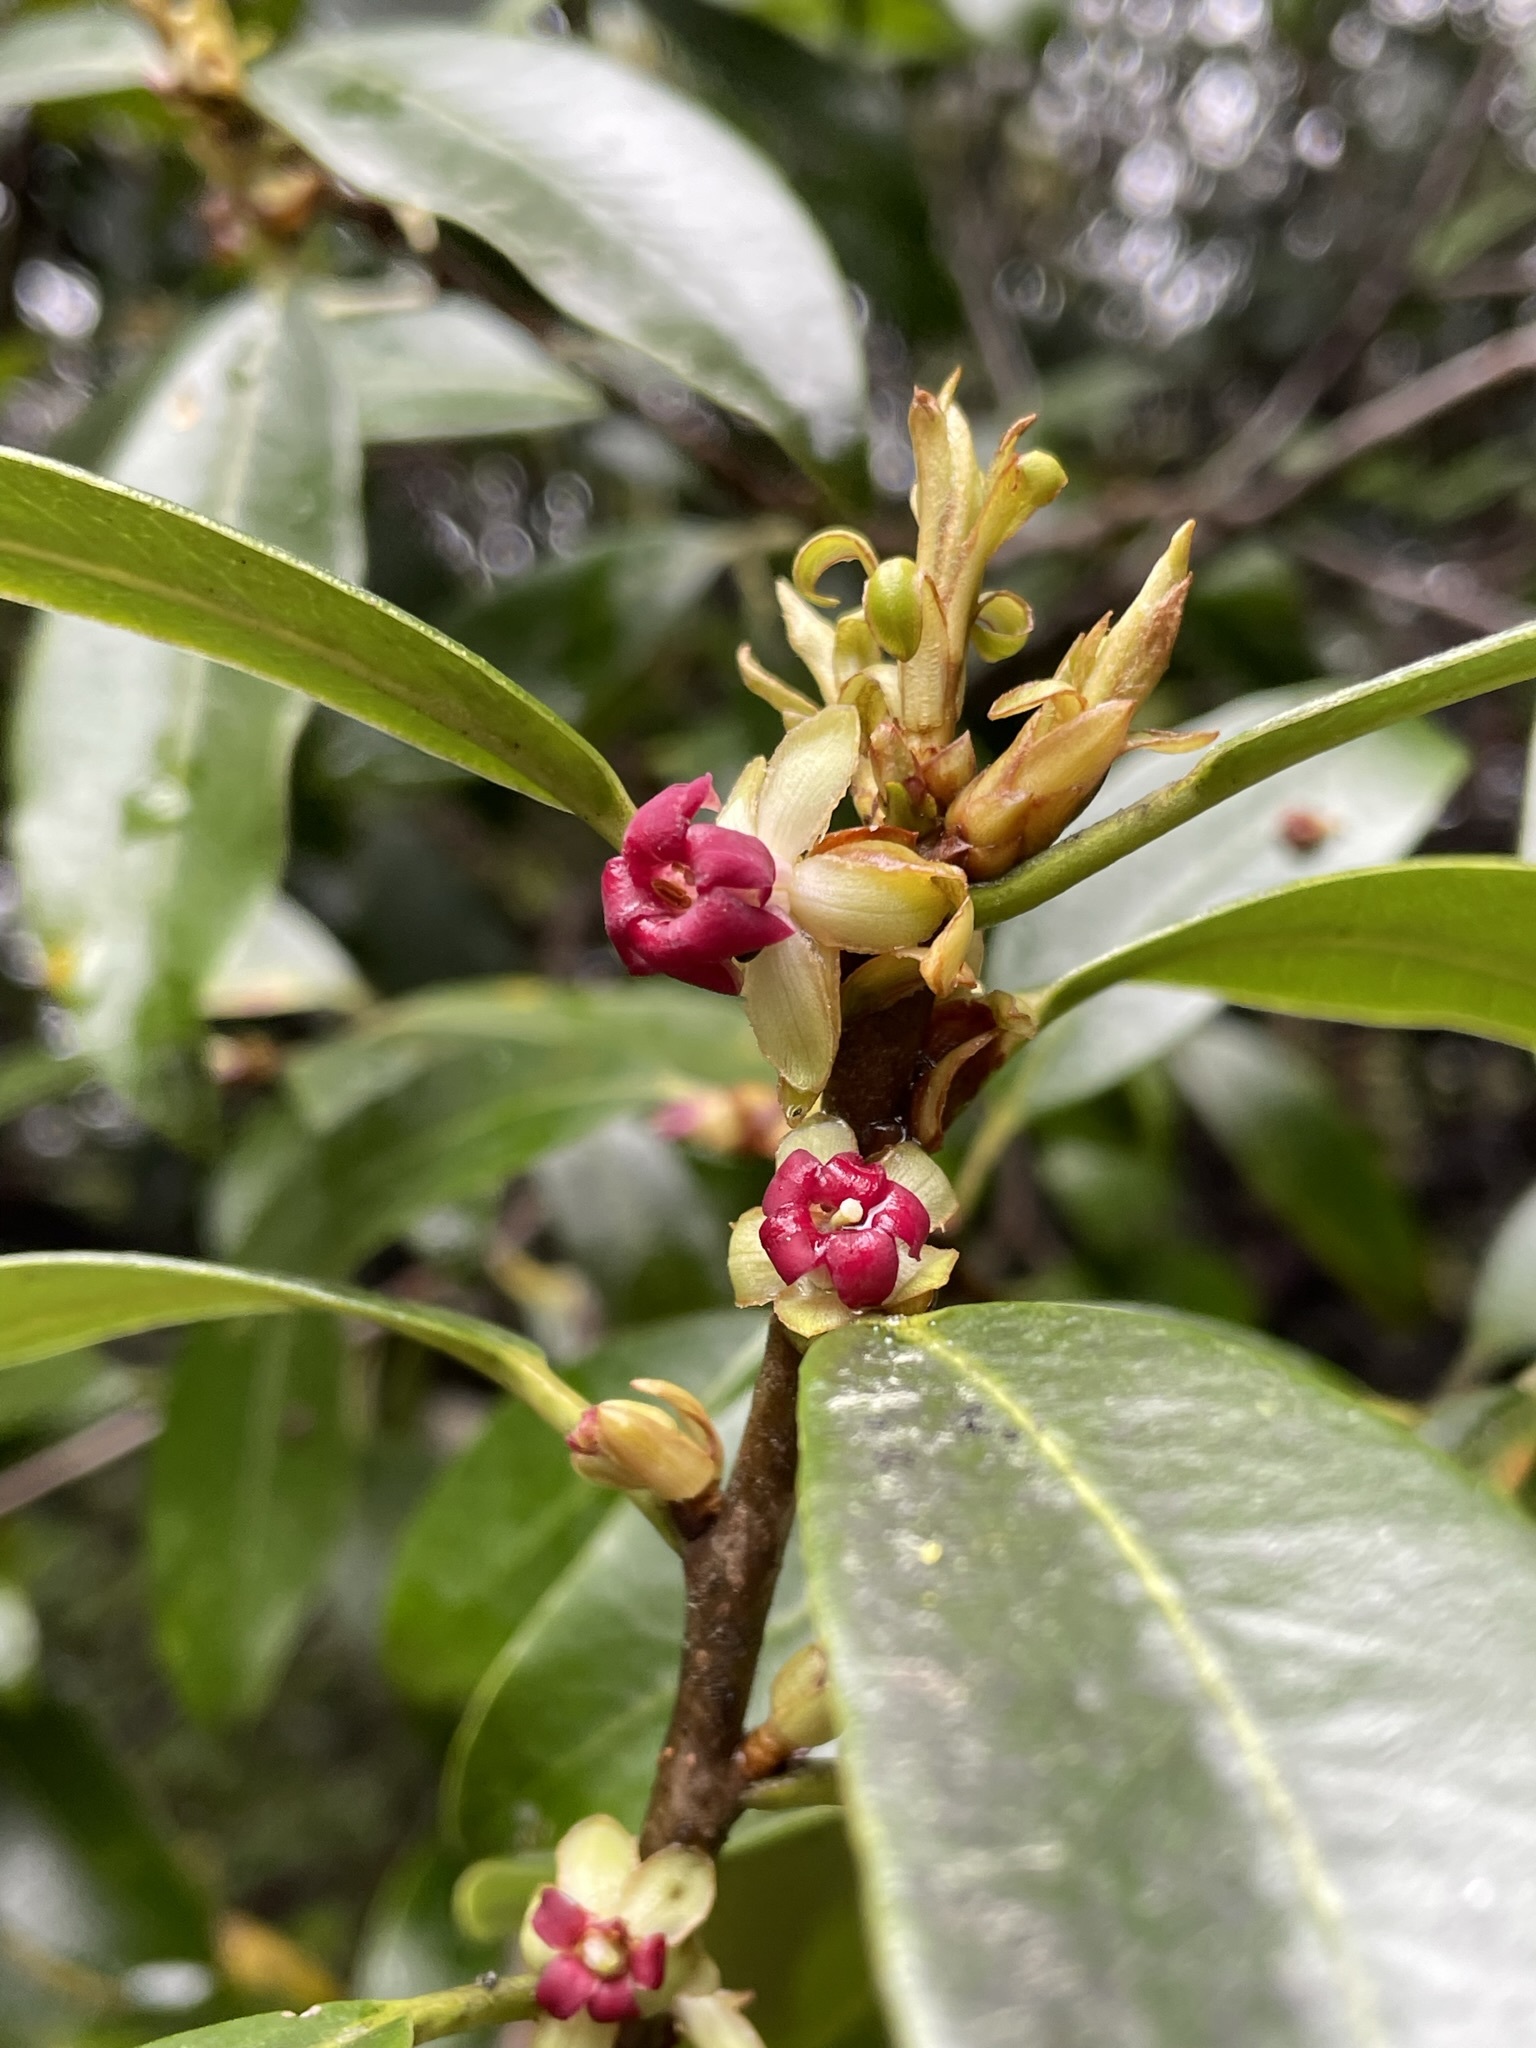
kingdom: Plantae
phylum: Tracheophyta
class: Magnoliopsida
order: Apiales
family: Pittosporaceae
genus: Pittosporum
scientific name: Pittosporum colensoi
